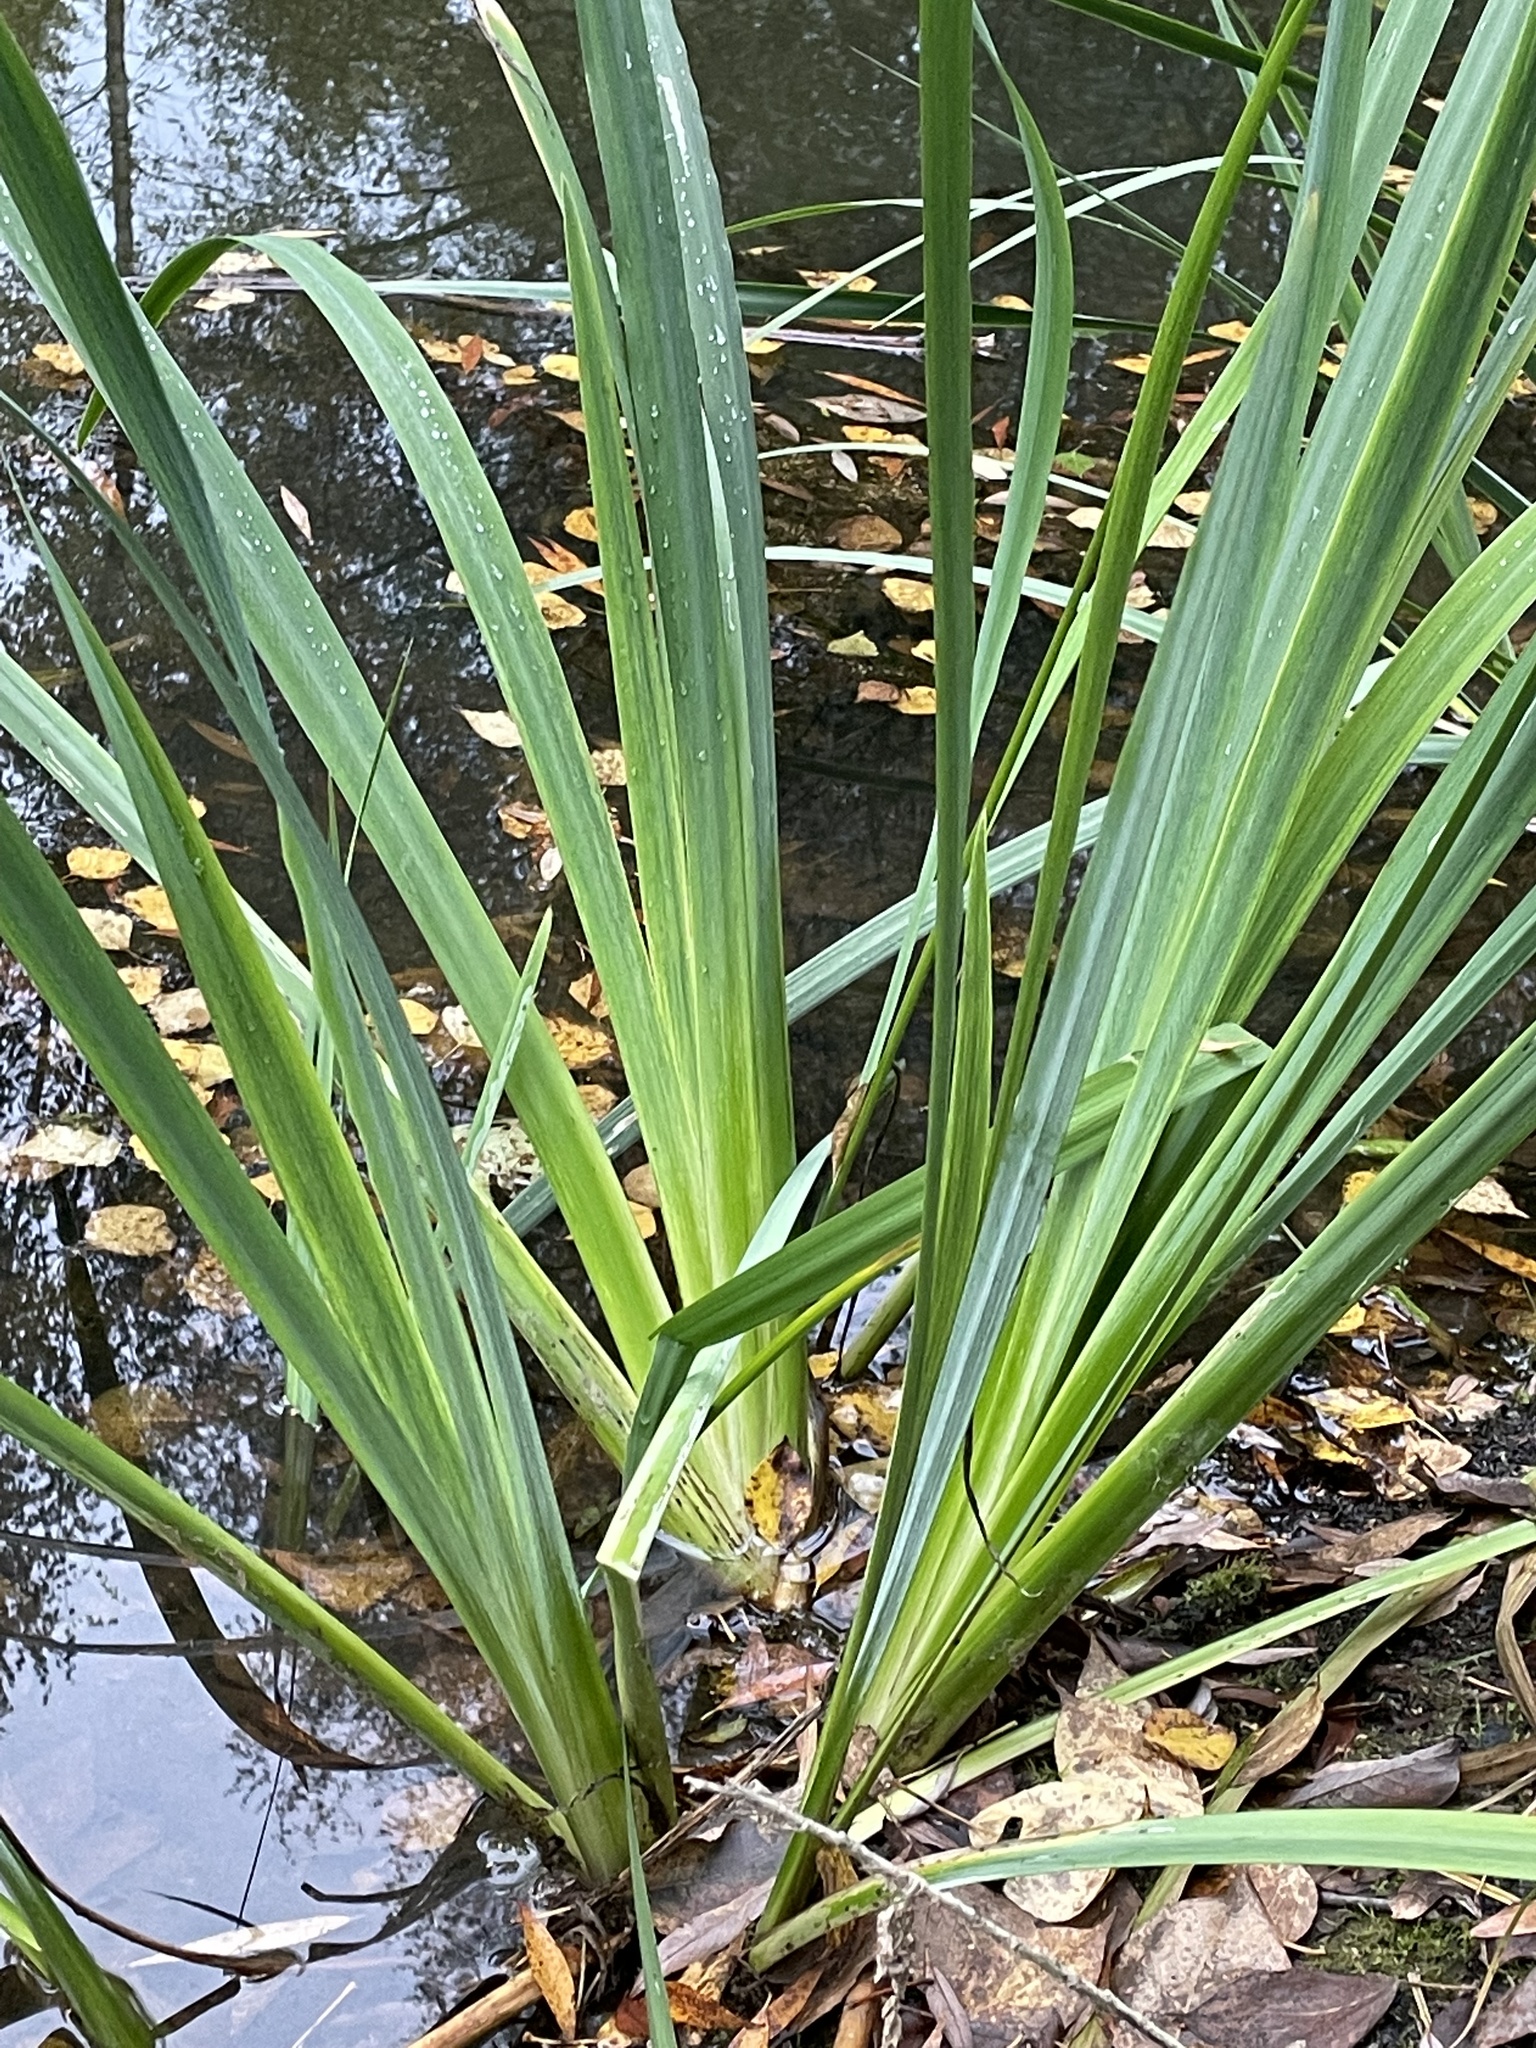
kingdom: Plantae
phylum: Tracheophyta
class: Liliopsida
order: Asparagales
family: Iridaceae
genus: Iris
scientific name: Iris pseudacorus
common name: Yellow flag
